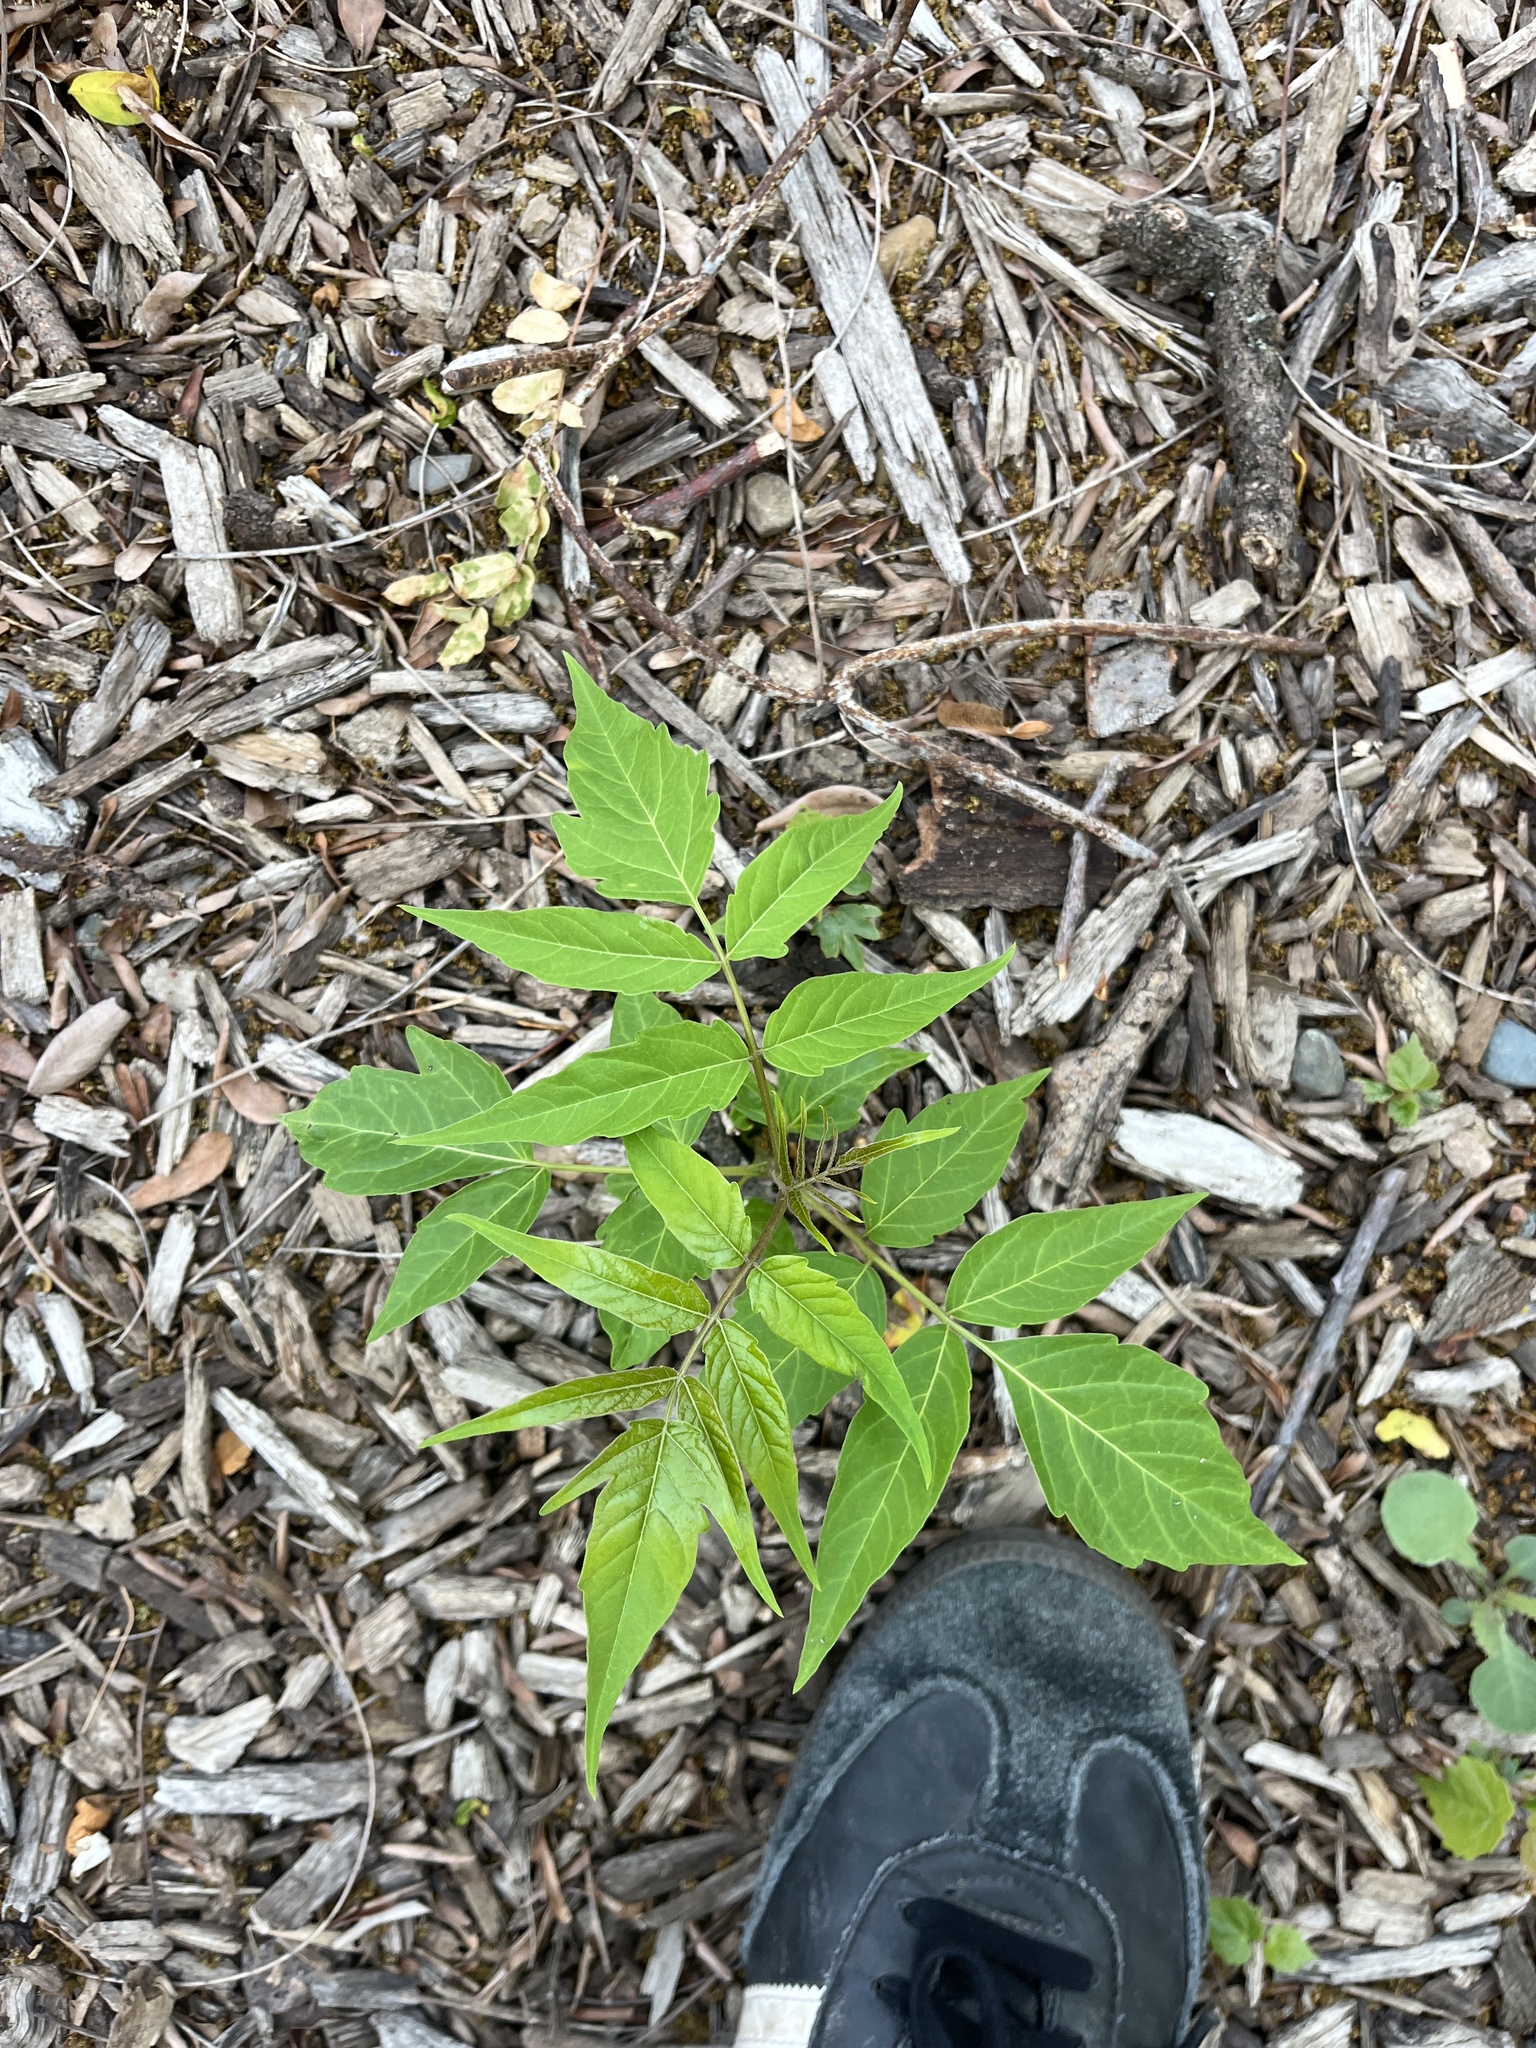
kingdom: Plantae
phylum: Tracheophyta
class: Magnoliopsida
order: Sapindales
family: Simaroubaceae
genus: Ailanthus
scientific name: Ailanthus altissima
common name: Tree-of-heaven
